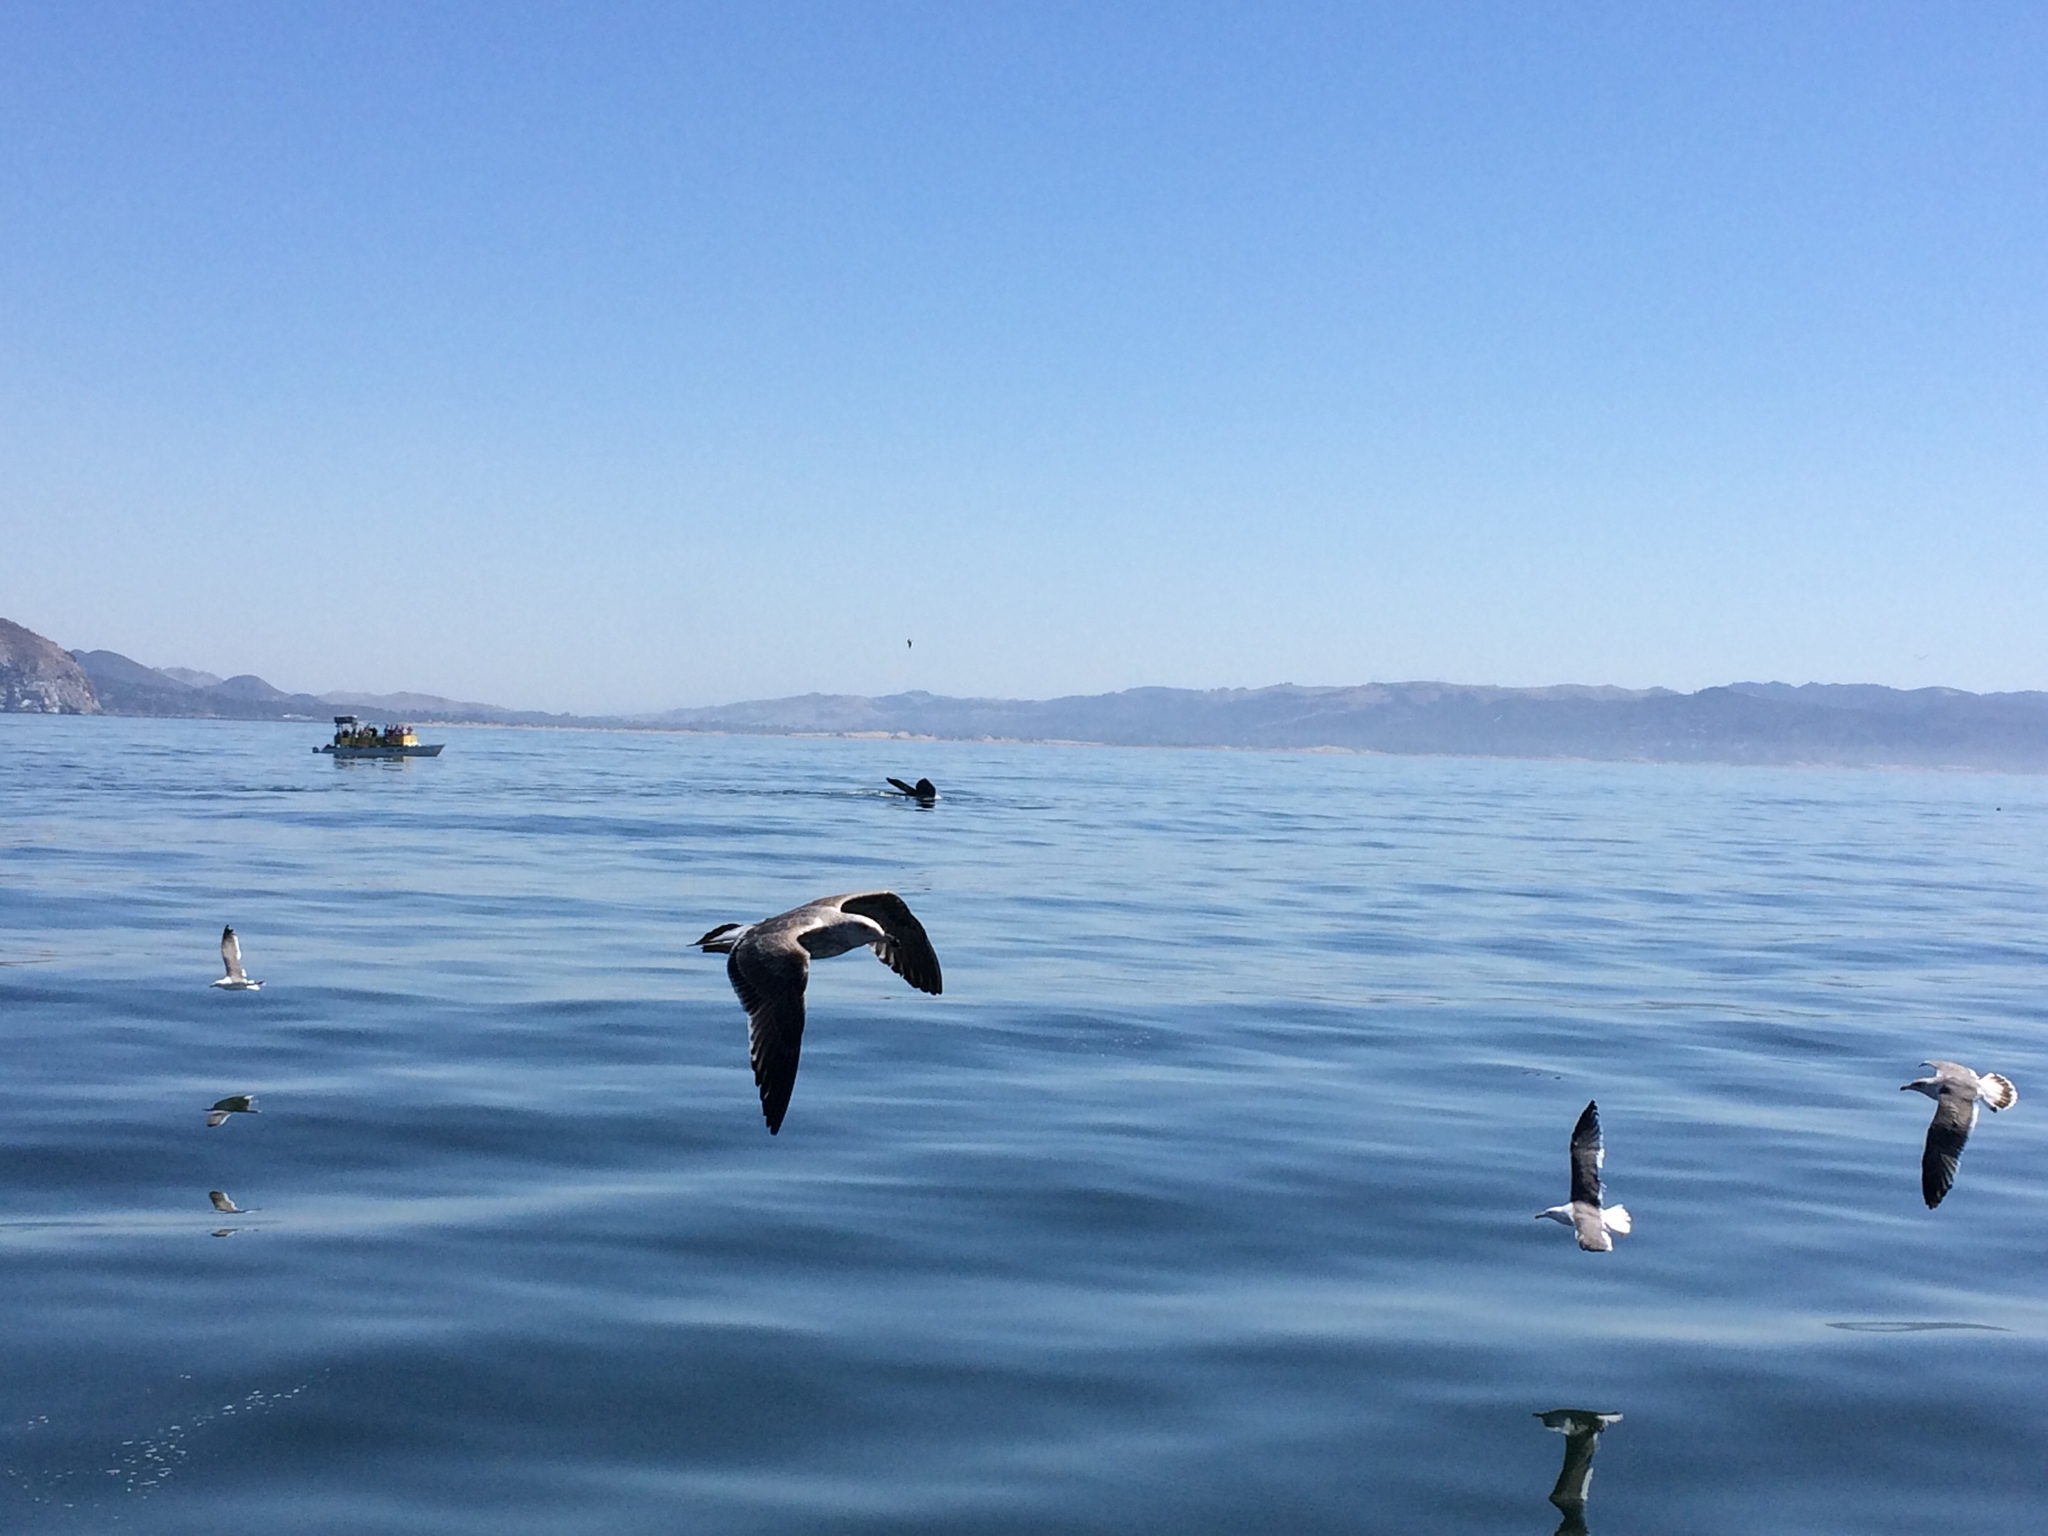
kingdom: Animalia
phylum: Chordata
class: Mammalia
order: Cetacea
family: Balaenopteridae
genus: Megaptera
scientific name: Megaptera novaeangliae
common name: Humpback whale
